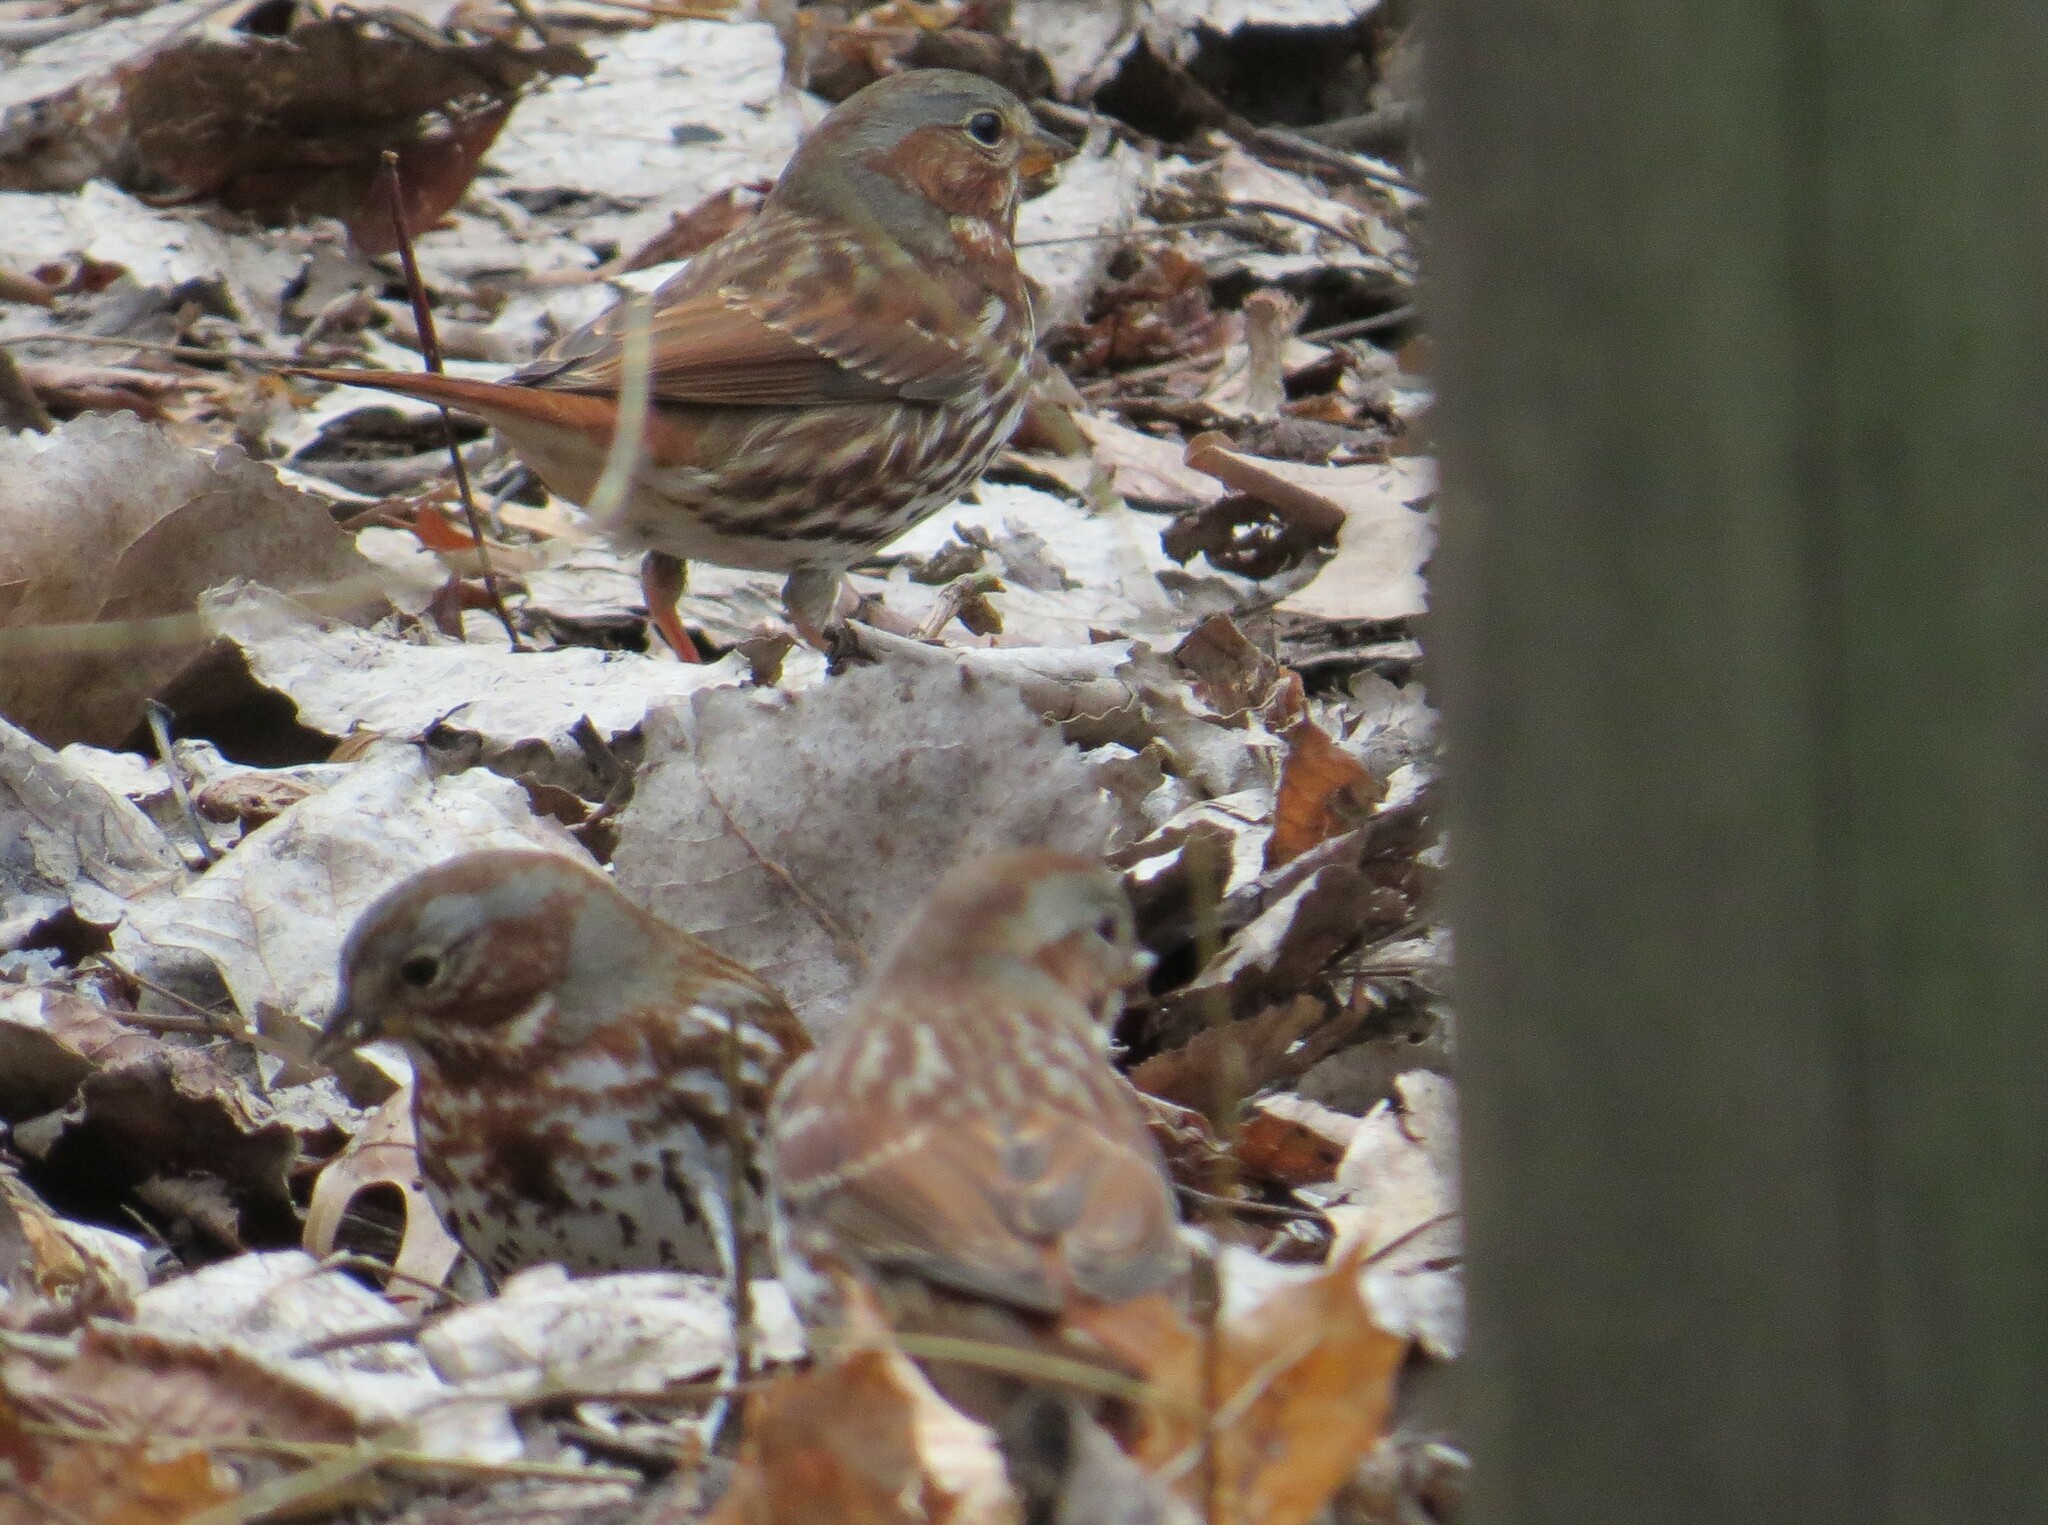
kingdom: Animalia
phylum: Chordata
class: Aves
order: Passeriformes
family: Passerellidae
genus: Passerella
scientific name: Passerella iliaca
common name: Fox sparrow
